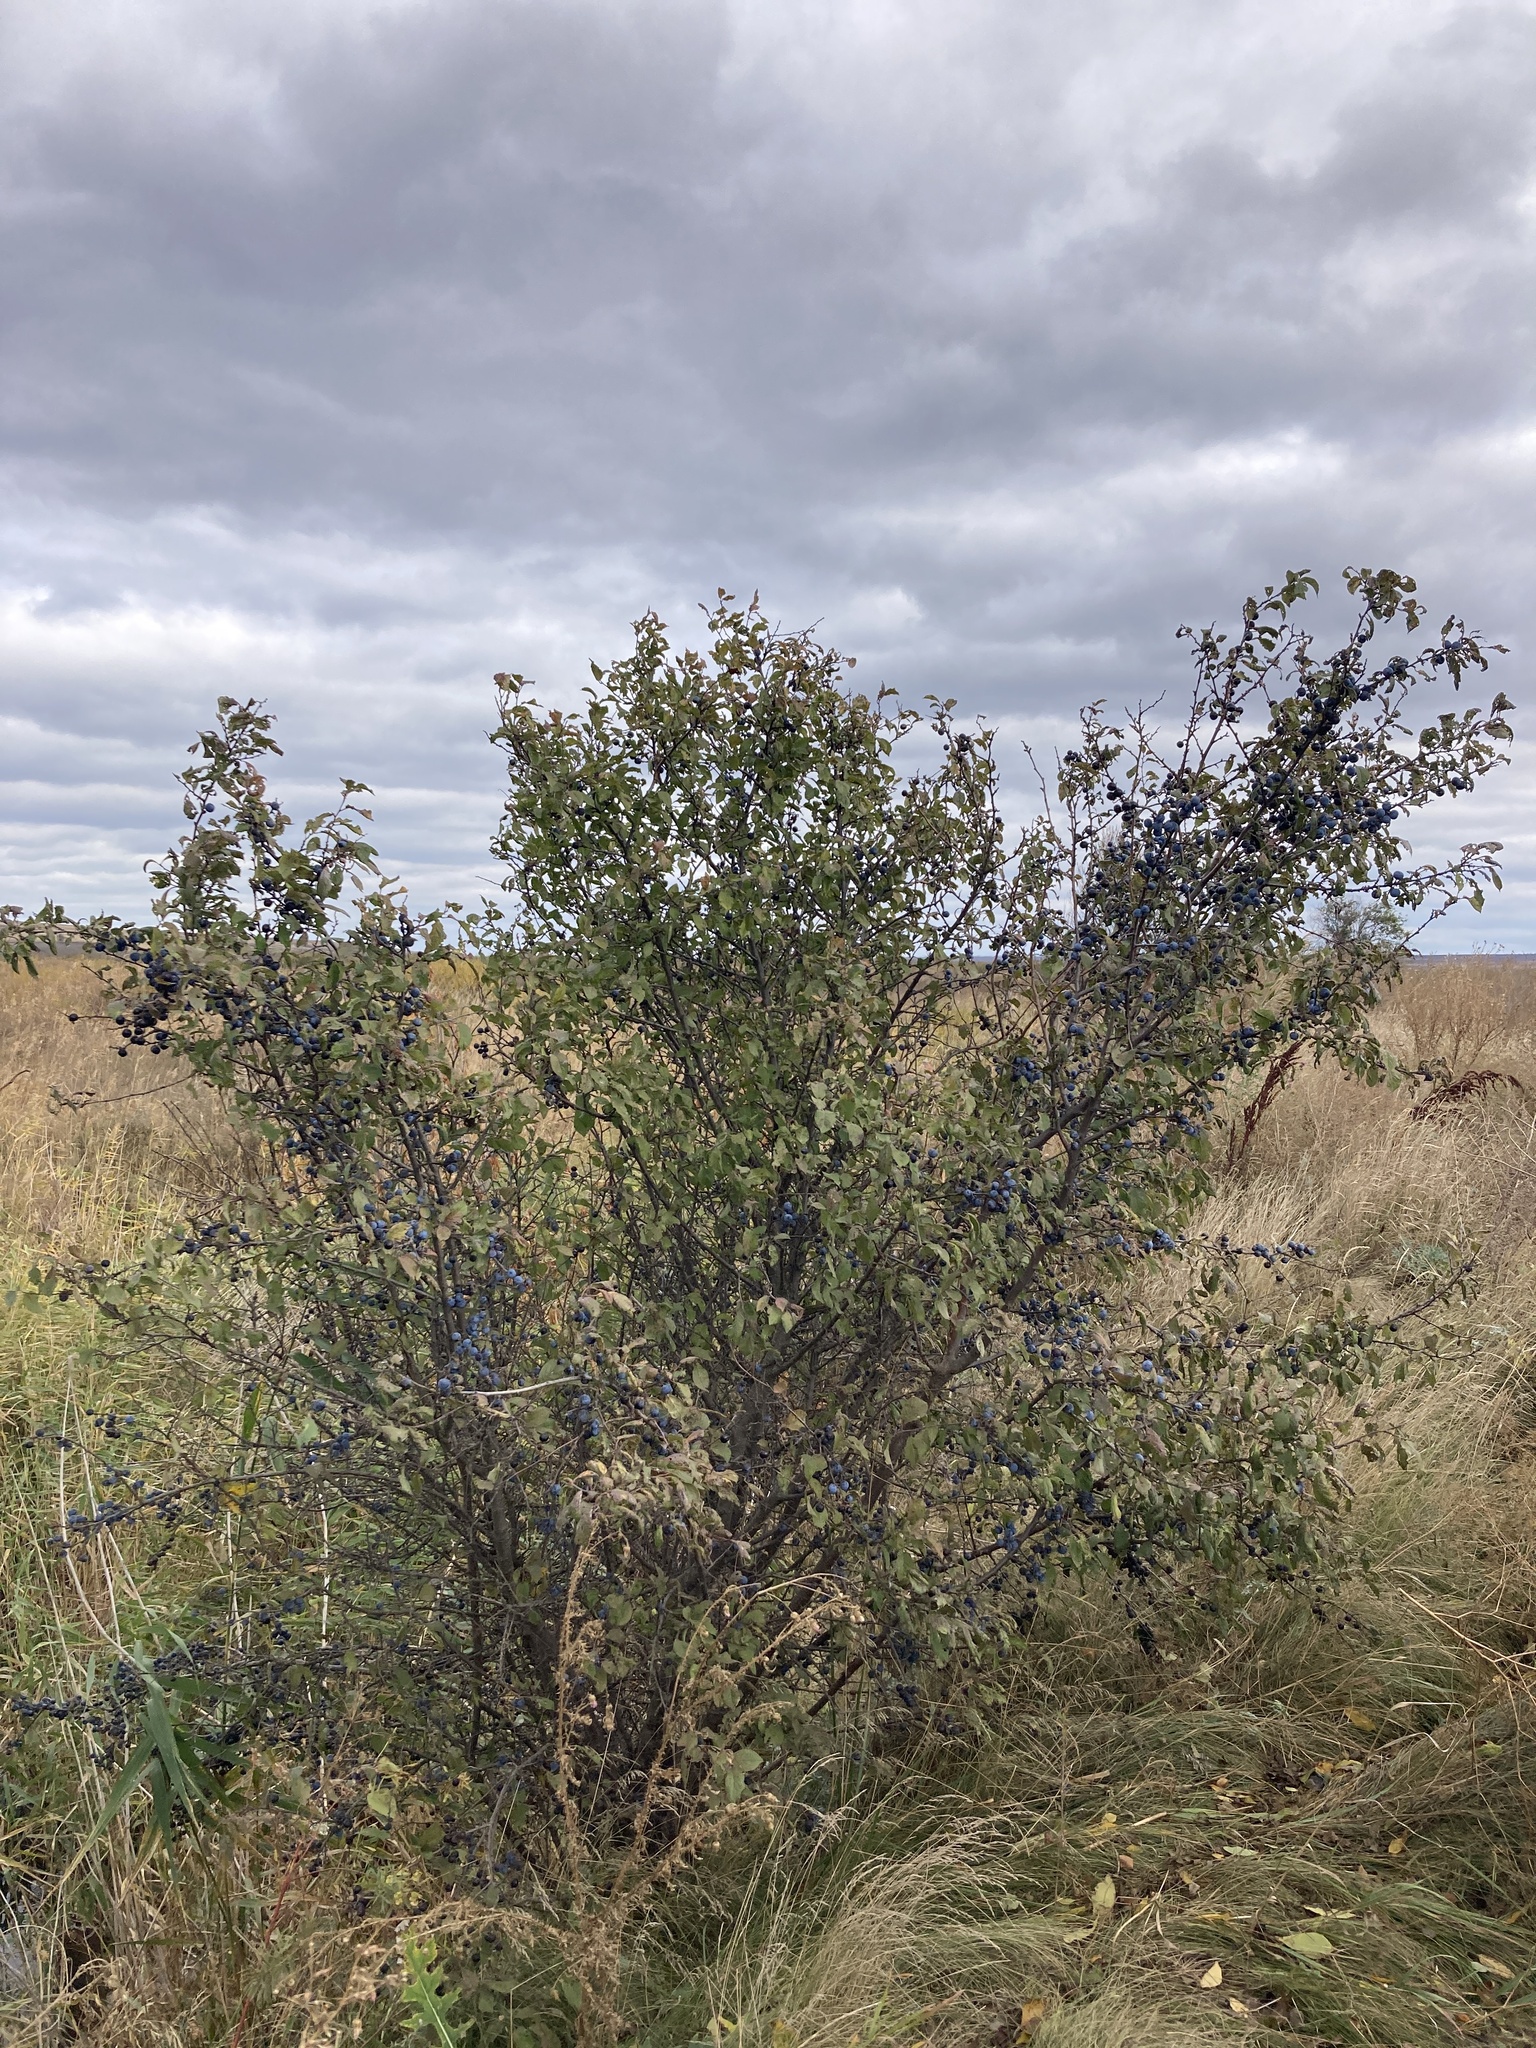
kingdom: Plantae
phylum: Tracheophyta
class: Magnoliopsida
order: Rosales
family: Rosaceae
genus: Prunus
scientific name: Prunus spinosa
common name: Blackthorn
